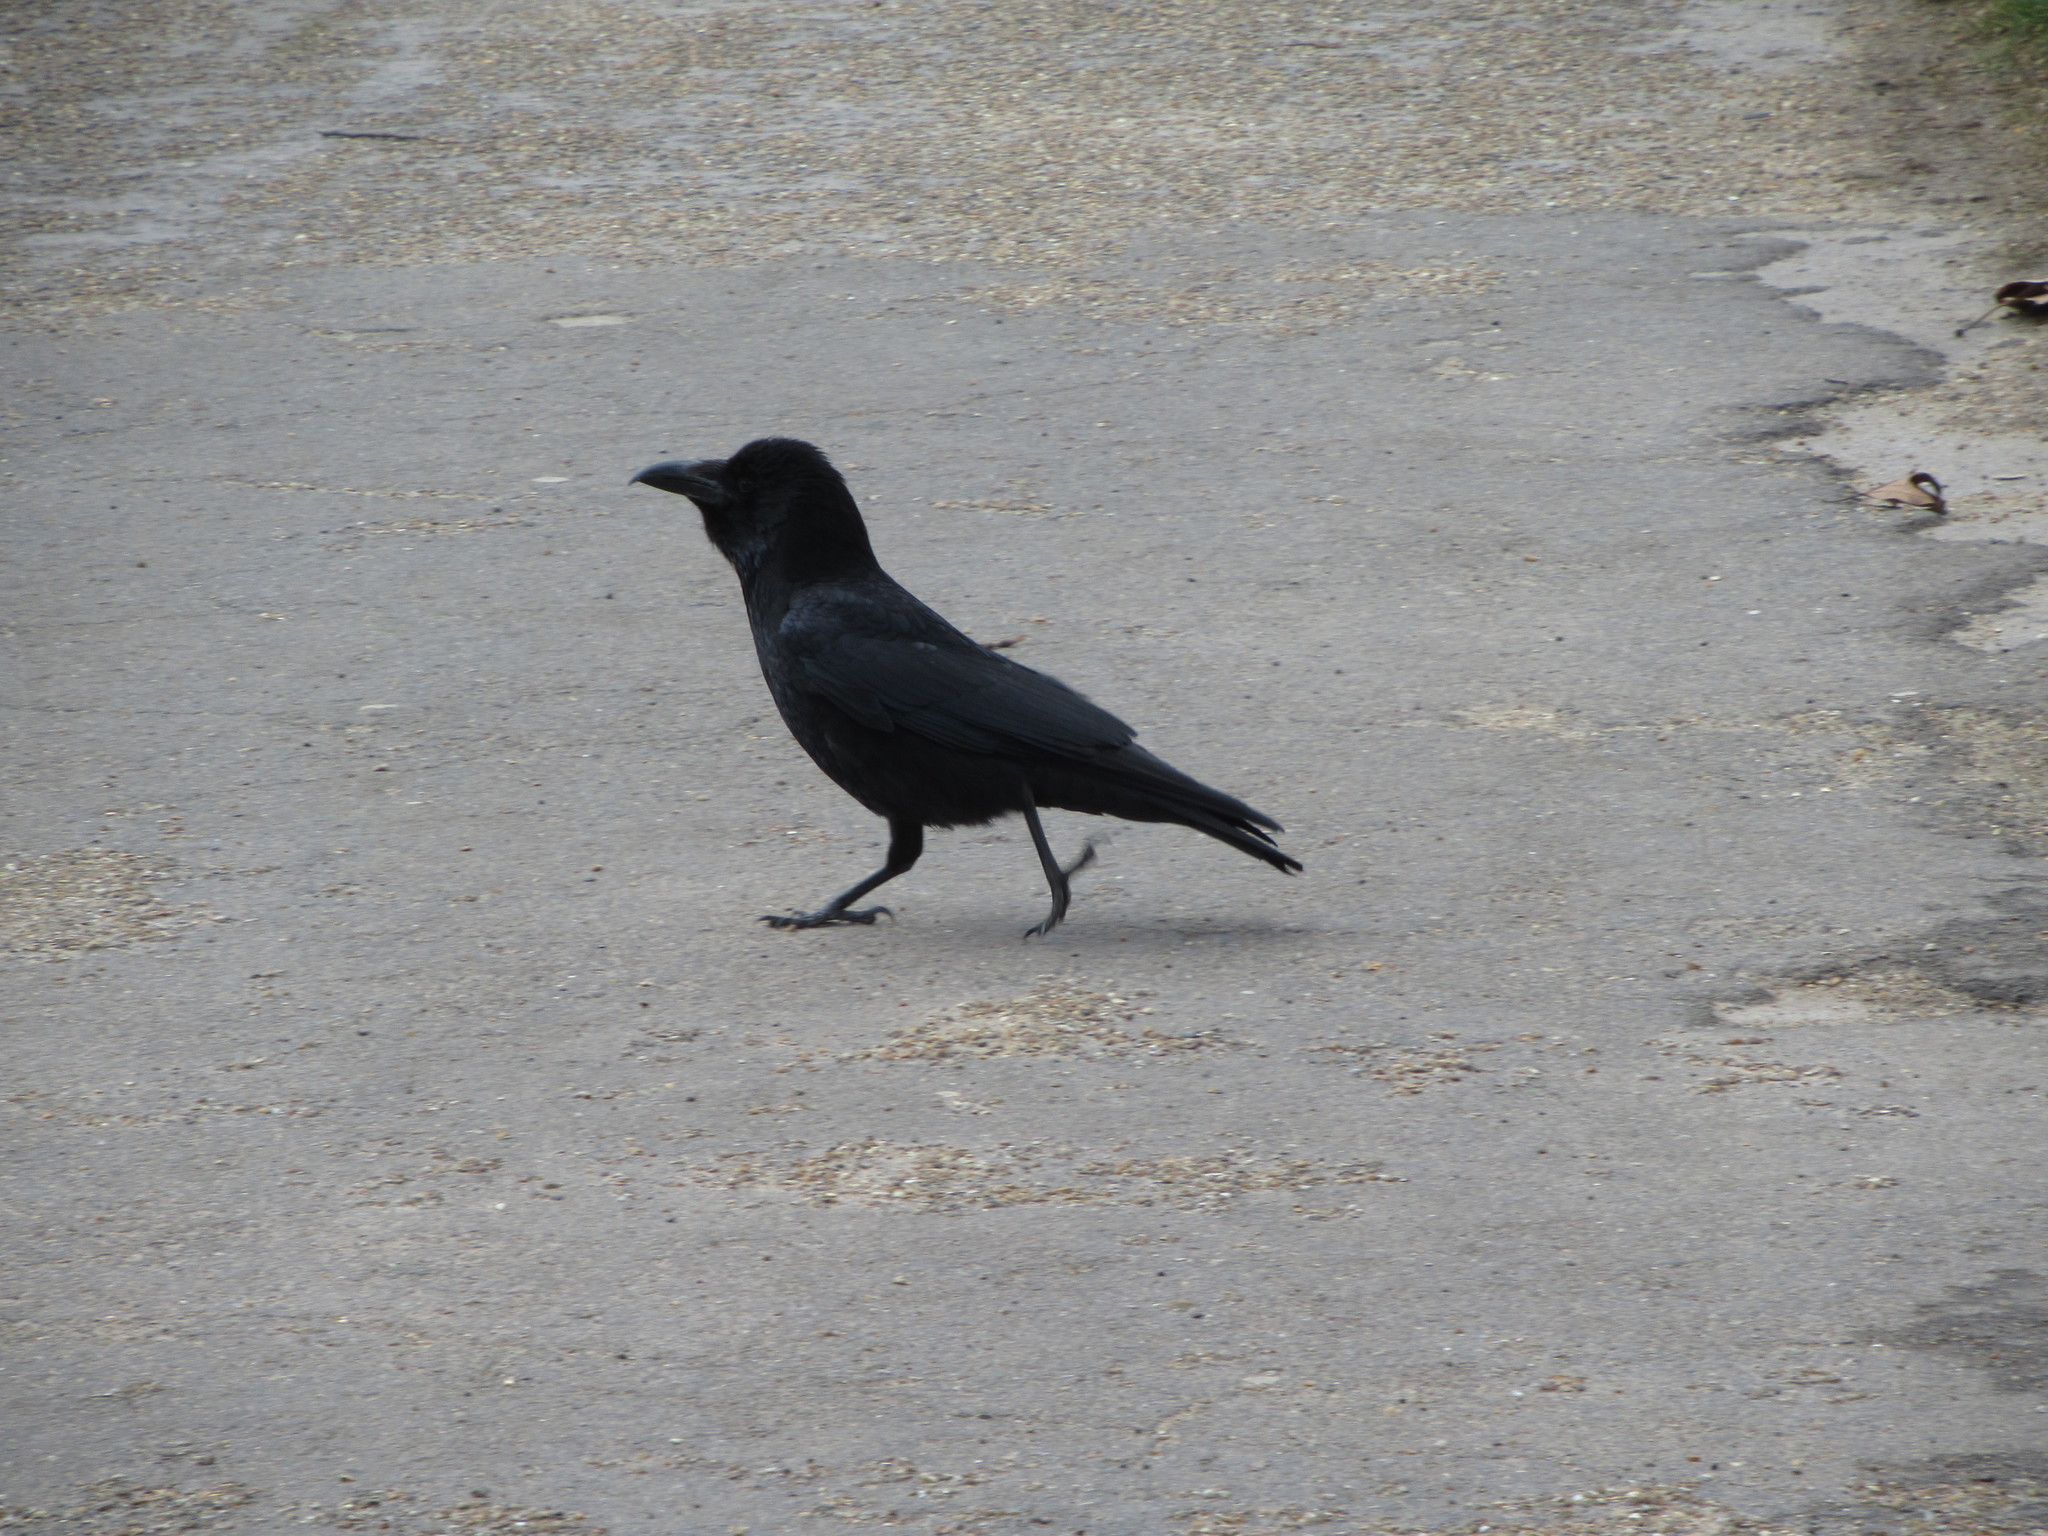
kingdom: Animalia
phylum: Chordata
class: Aves
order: Passeriformes
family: Corvidae
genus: Corvus
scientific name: Corvus corone
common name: Carrion crow
